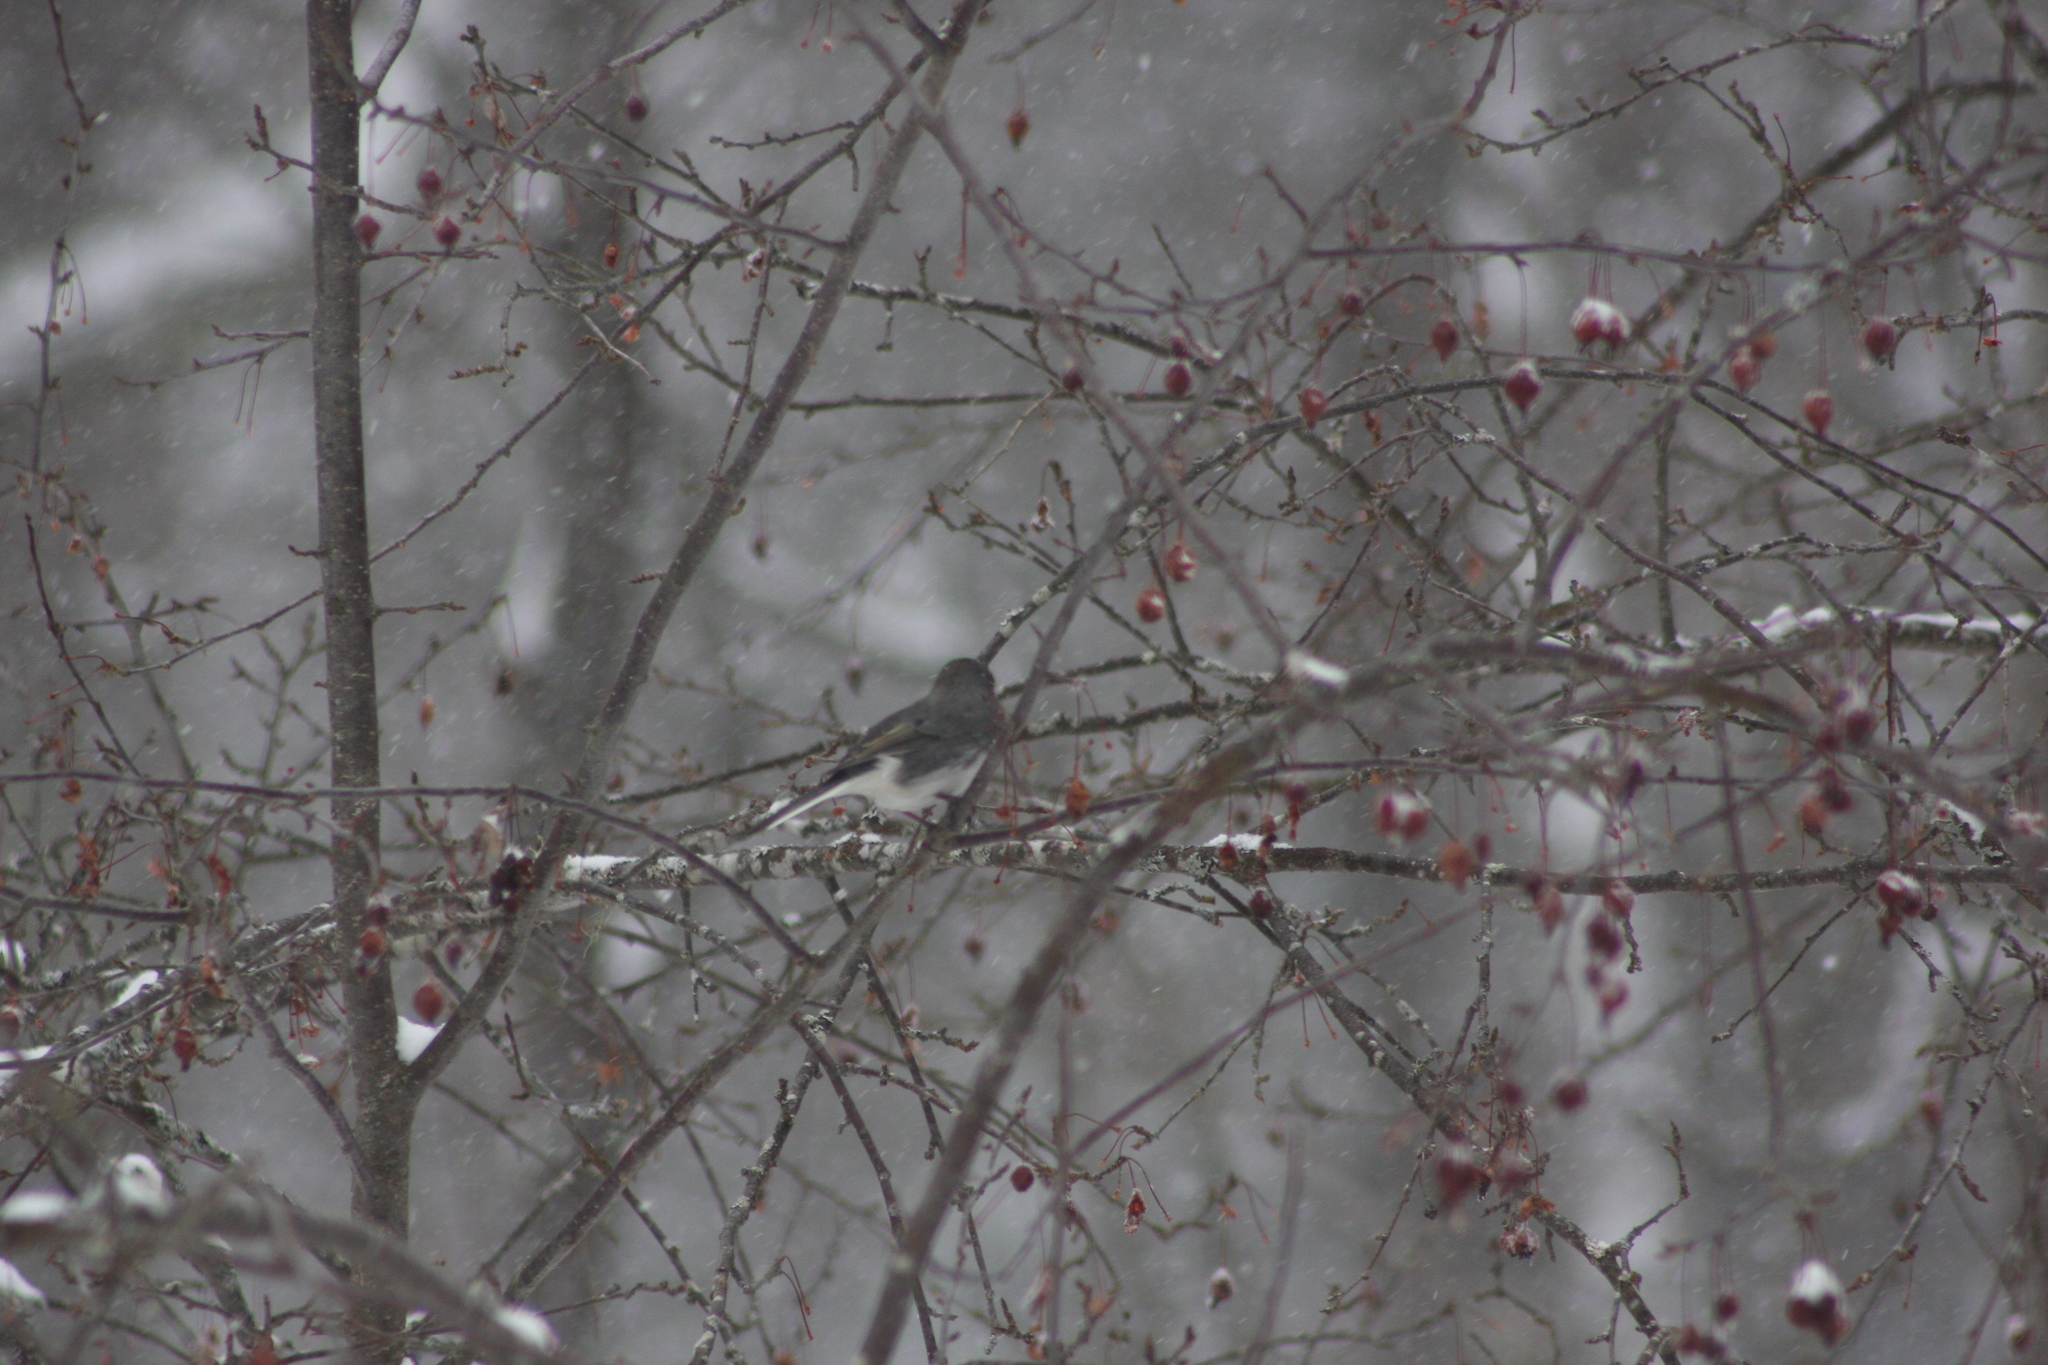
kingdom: Animalia
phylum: Chordata
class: Aves
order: Passeriformes
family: Passerellidae
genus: Junco
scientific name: Junco hyemalis
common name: Dark-eyed junco
